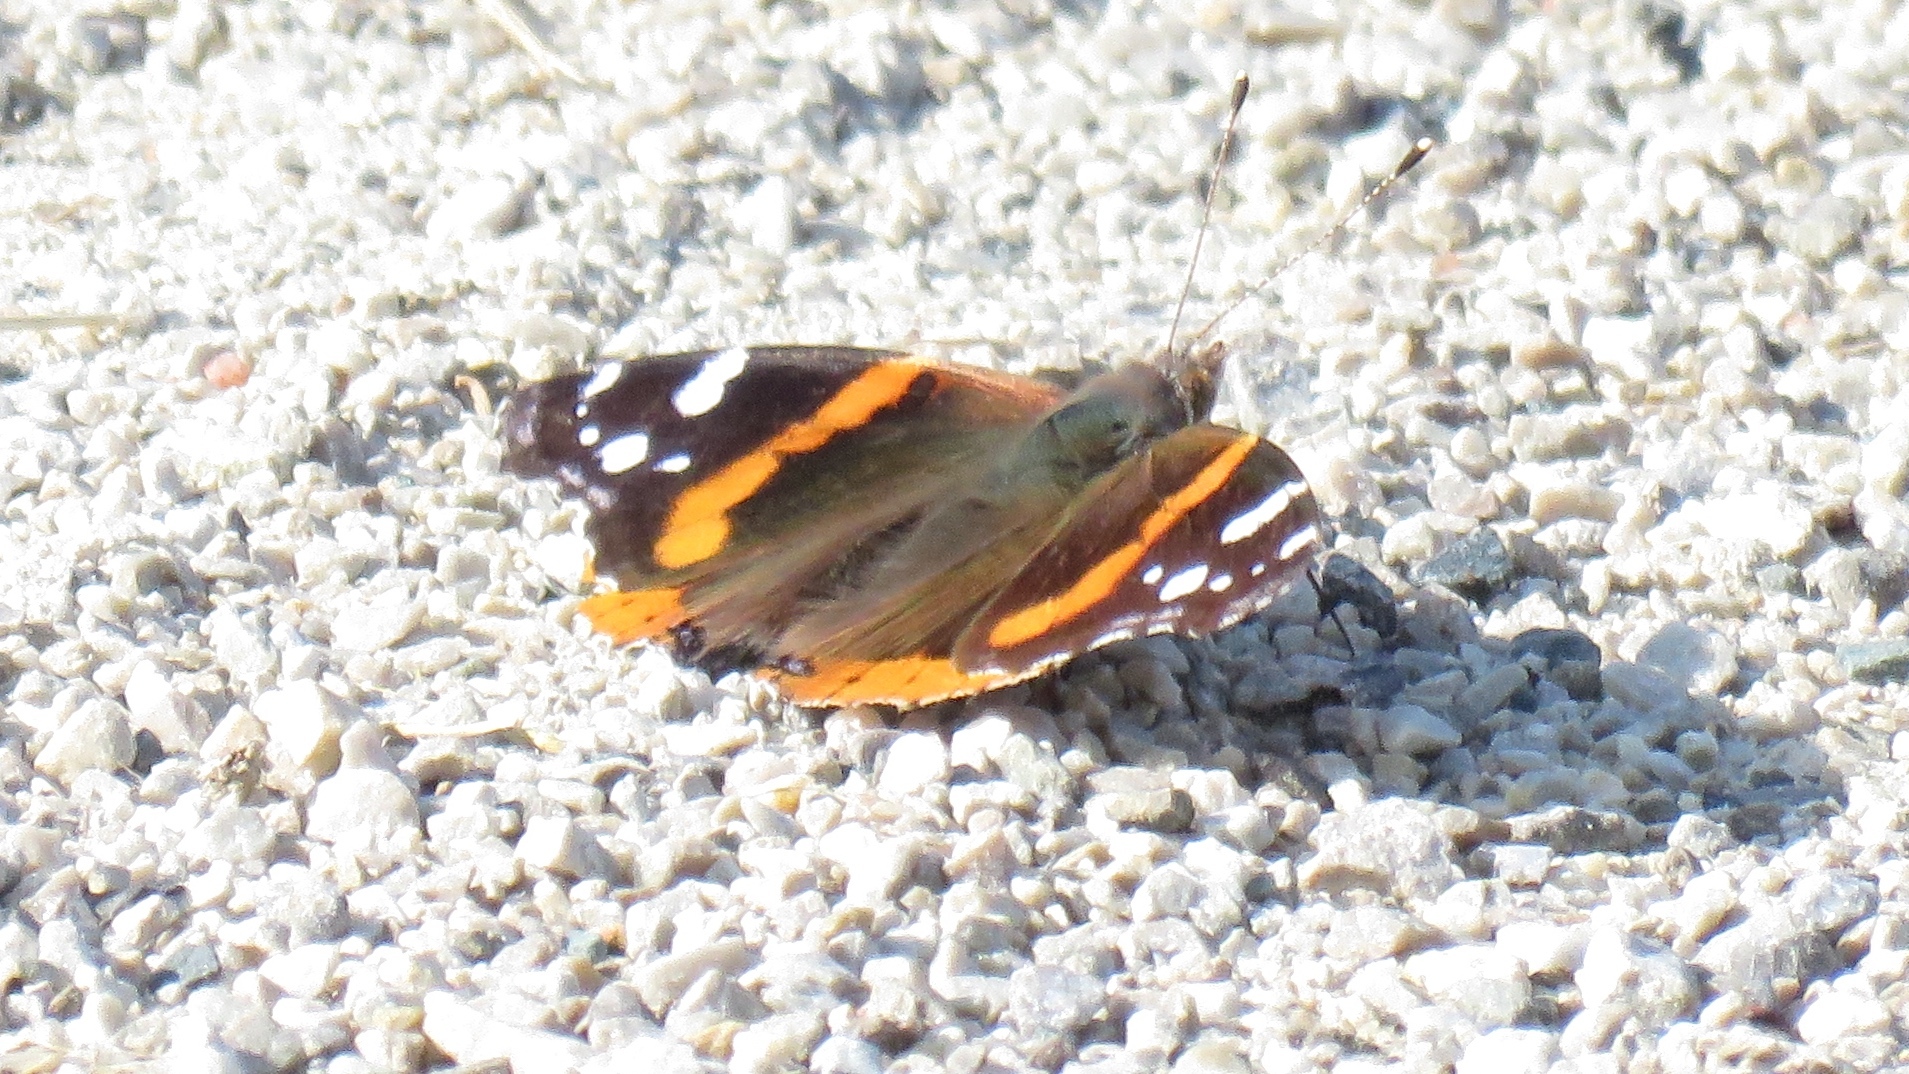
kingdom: Animalia
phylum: Arthropoda
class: Insecta
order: Lepidoptera
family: Nymphalidae
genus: Vanessa
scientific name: Vanessa atalanta
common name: Red admiral
